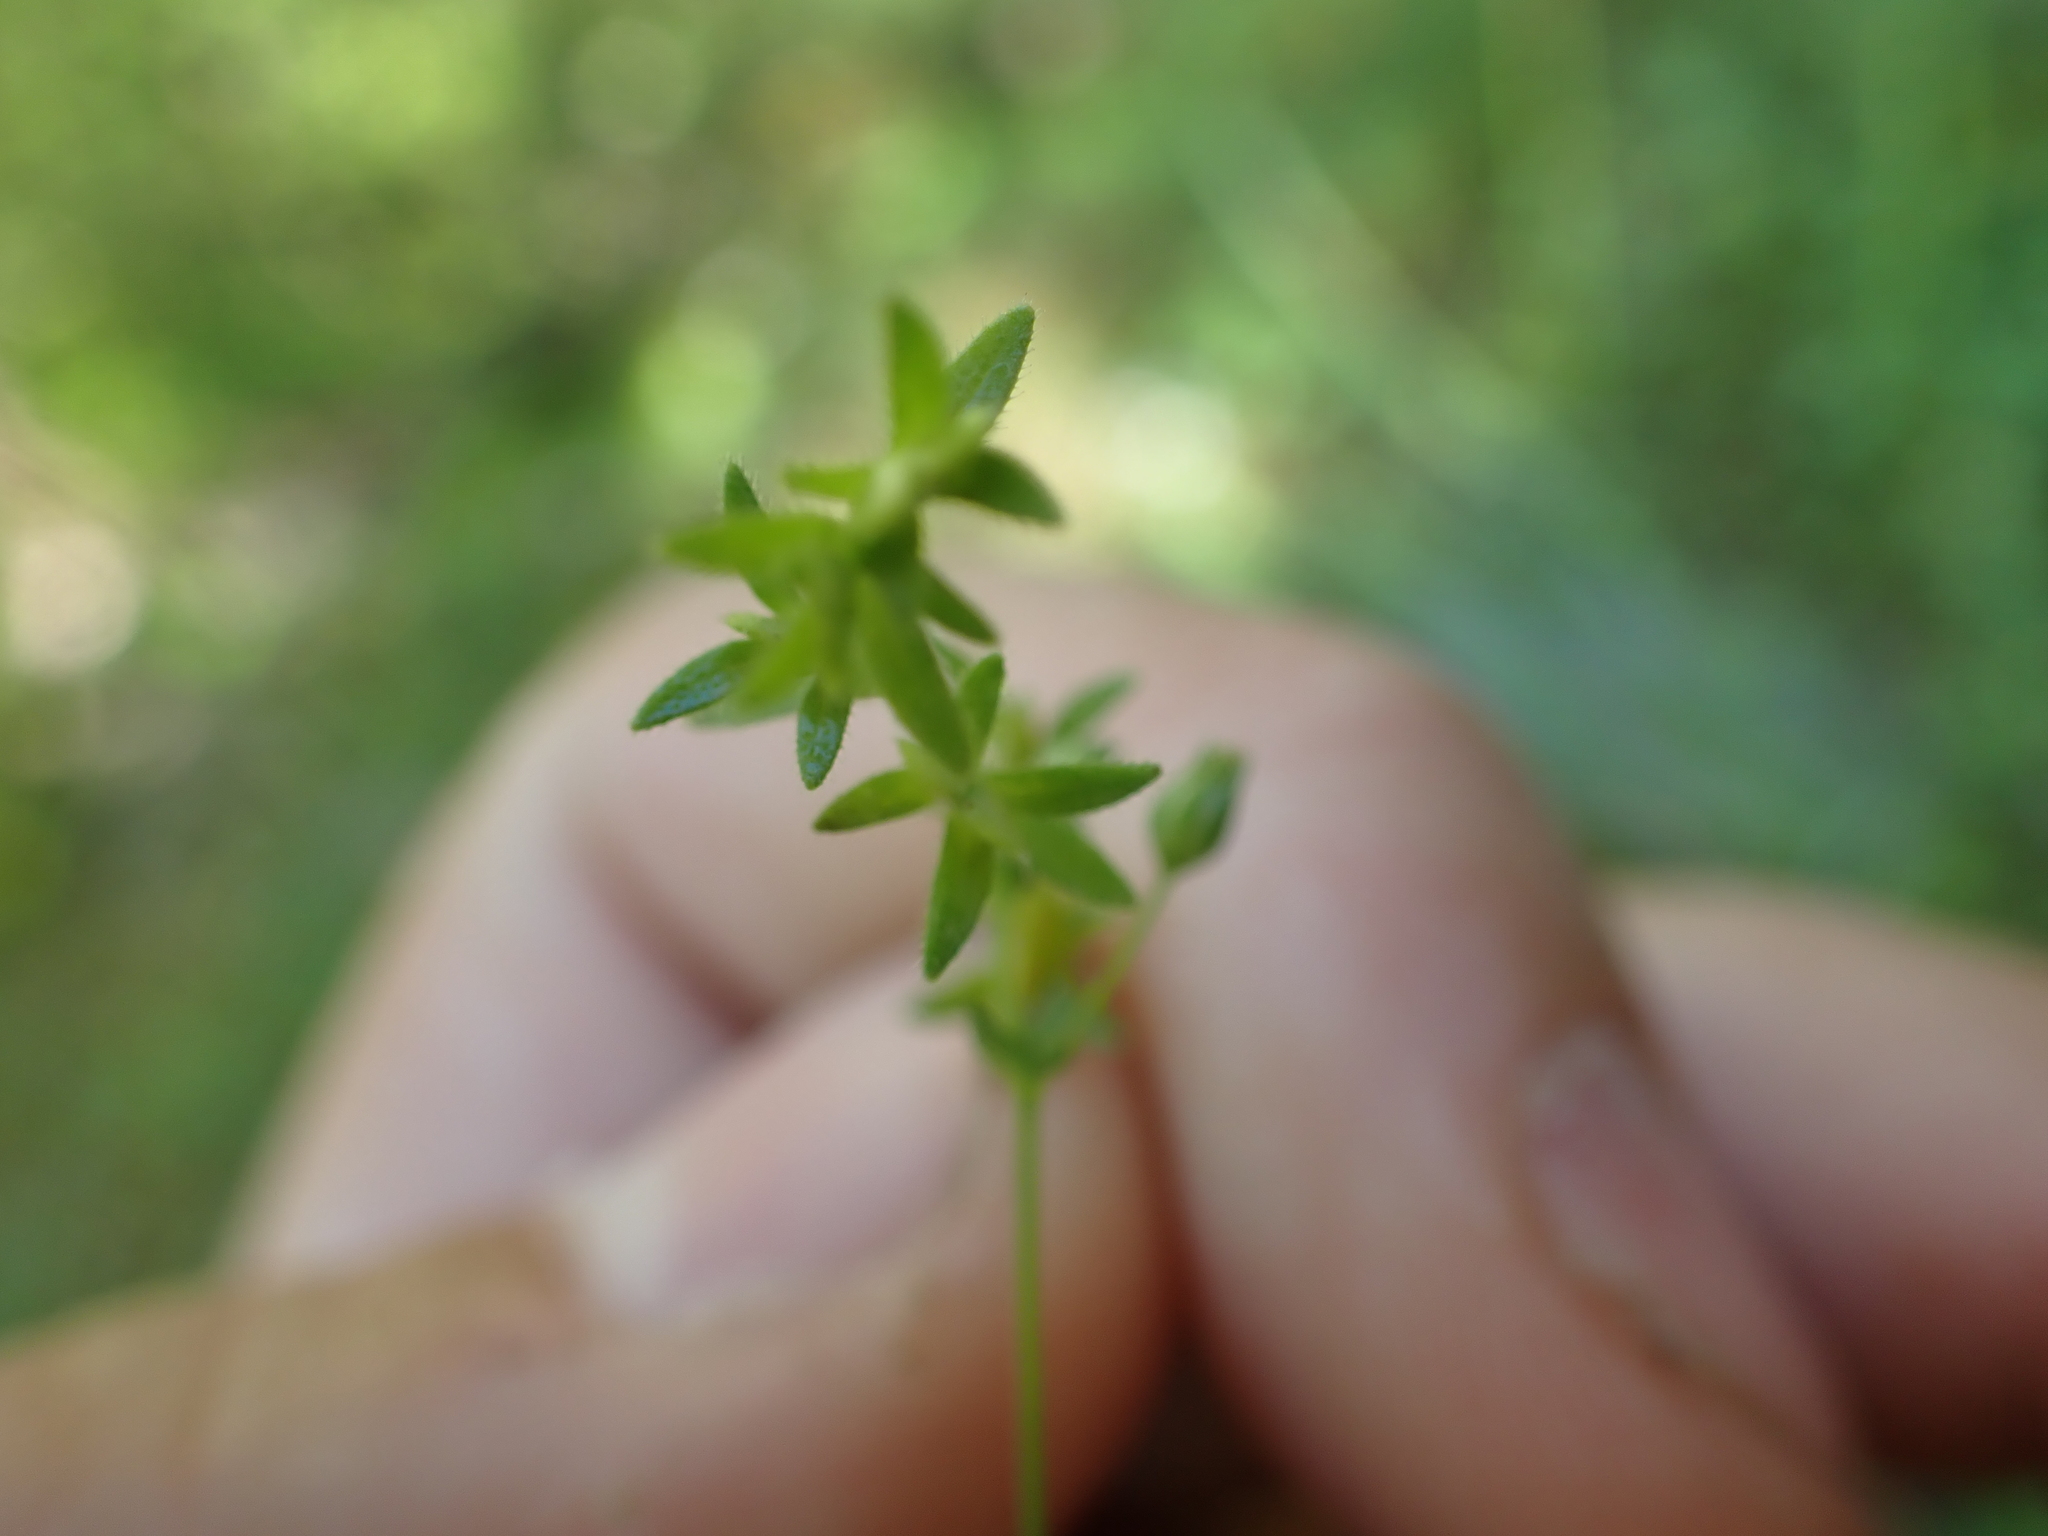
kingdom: Plantae
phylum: Tracheophyta
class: Magnoliopsida
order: Lamiales
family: Plantaginaceae
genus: Veronica
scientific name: Veronica arvensis
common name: Corn speedwell
